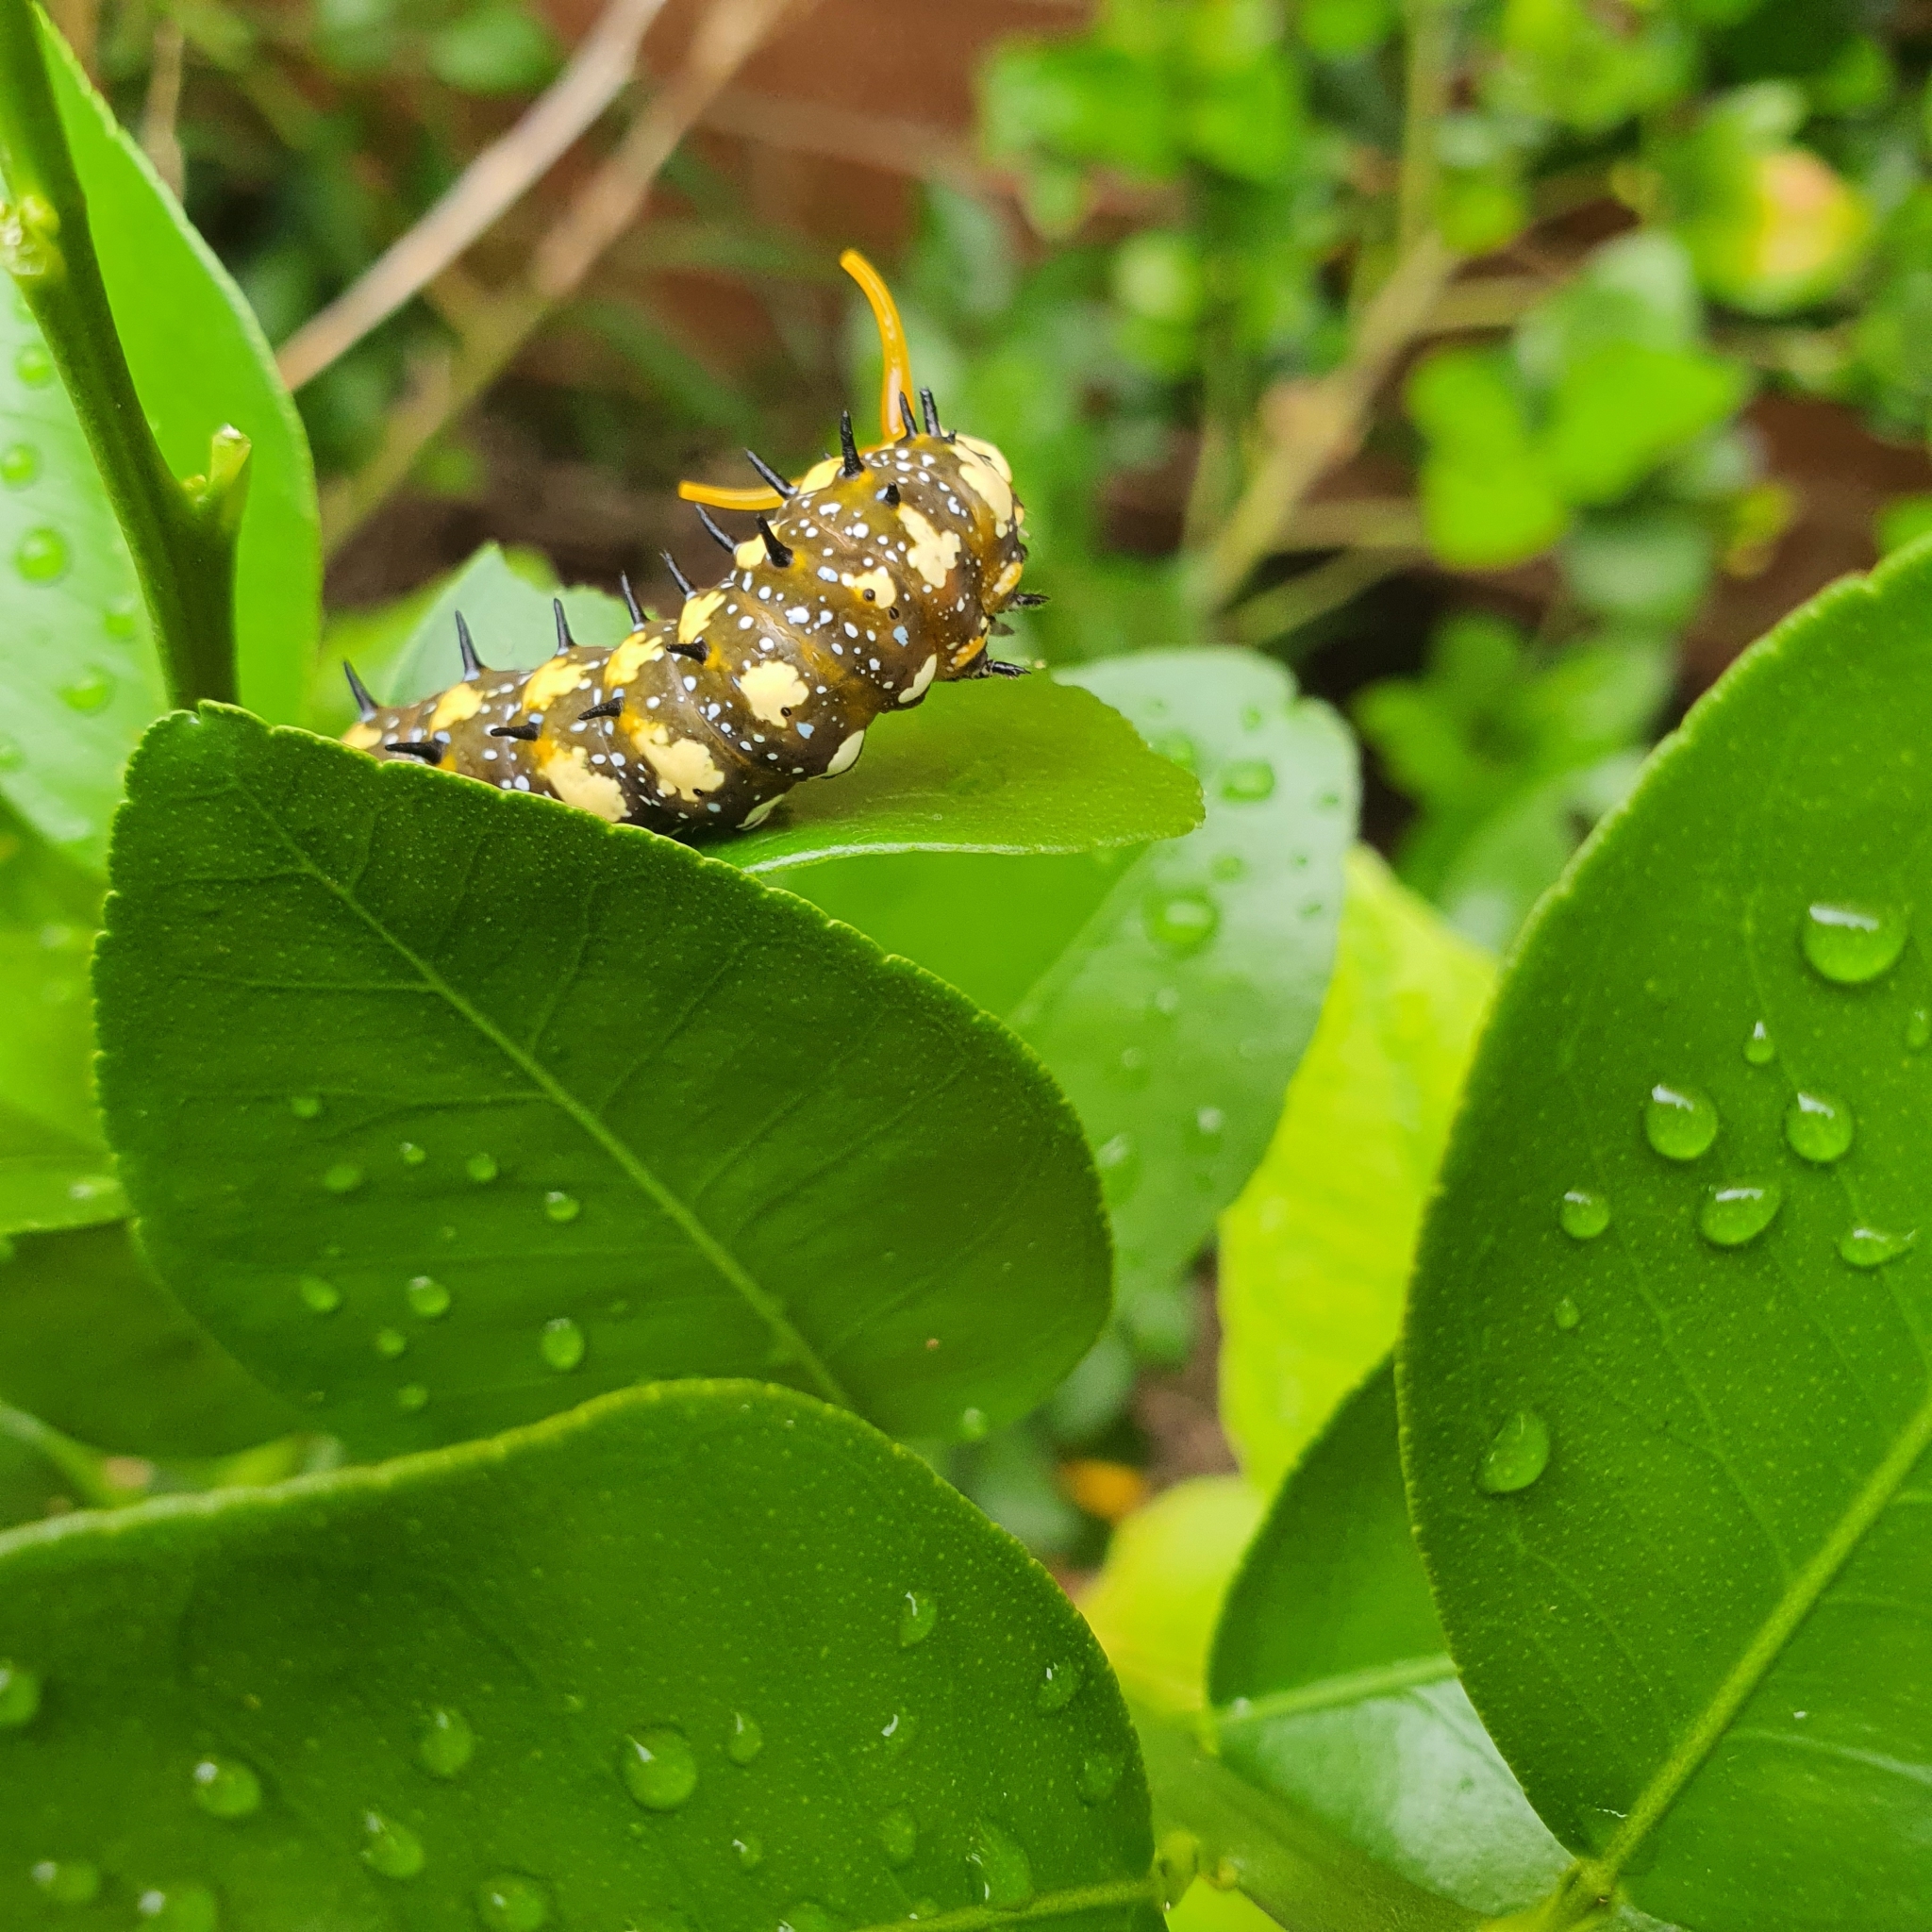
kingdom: Animalia
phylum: Arthropoda
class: Insecta
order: Lepidoptera
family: Papilionidae
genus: Papilio
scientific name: Papilio anactus
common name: Dingy swallowtail
